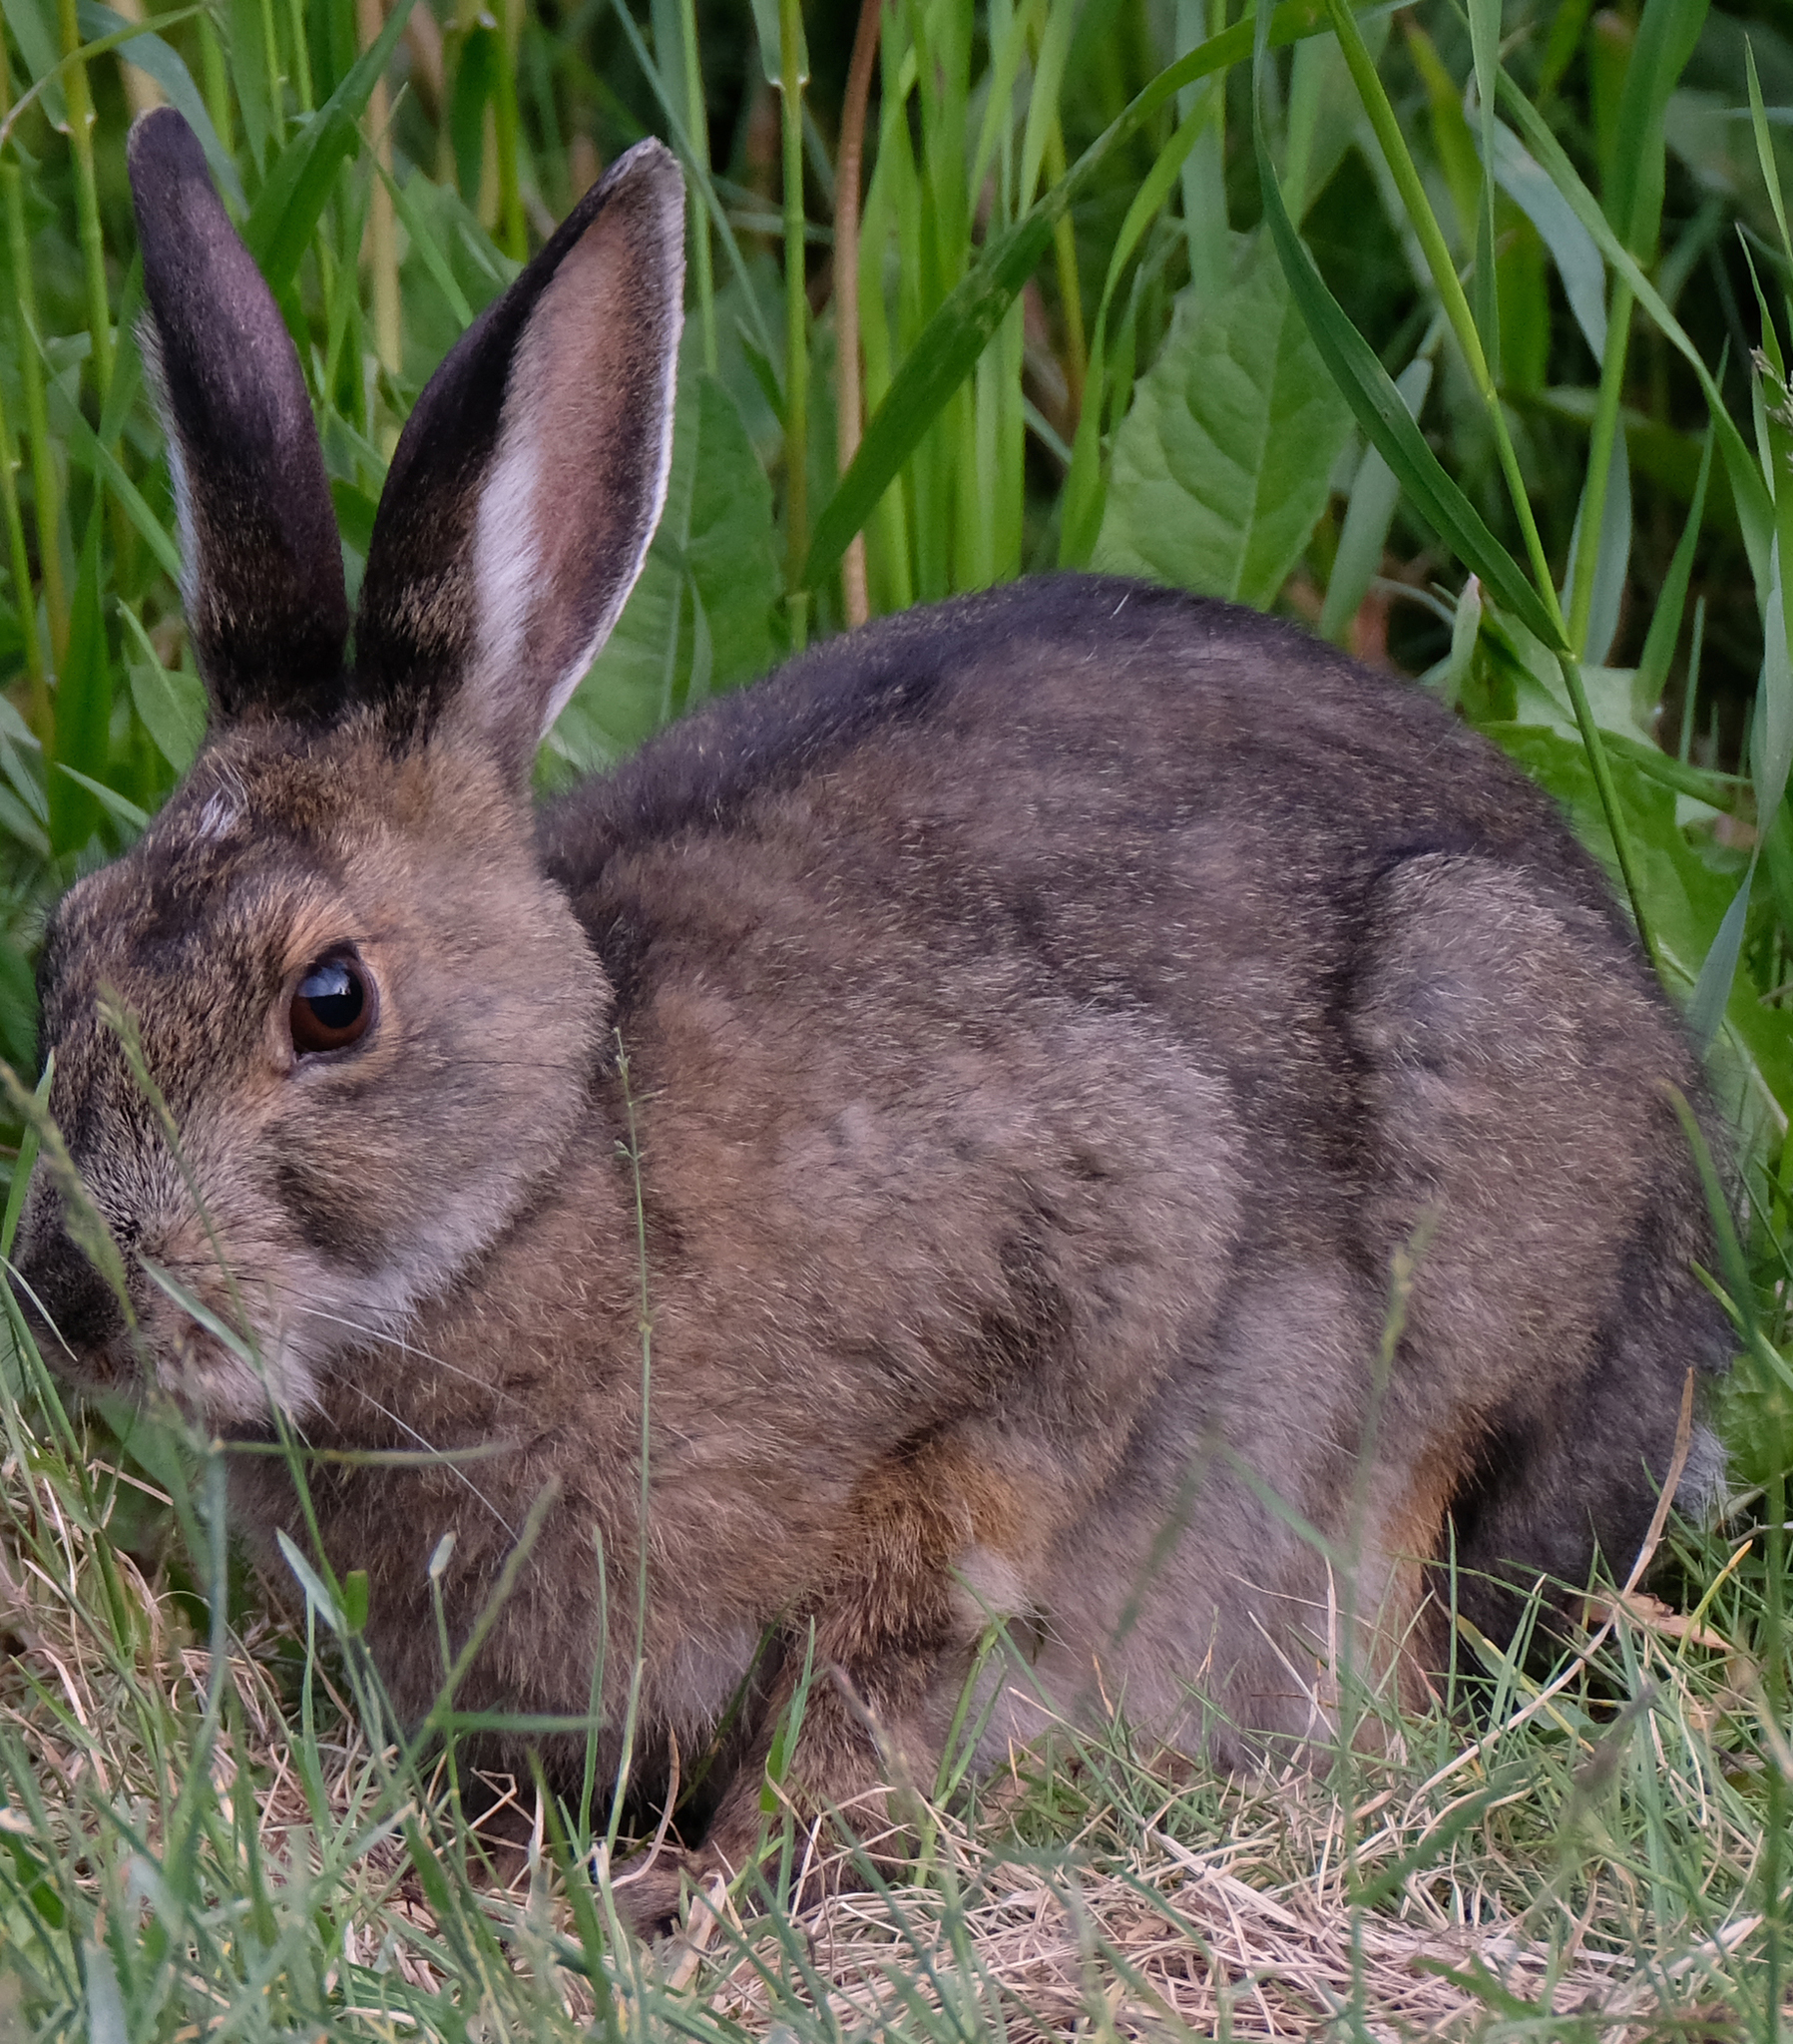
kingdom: Animalia
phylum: Chordata
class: Mammalia
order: Lagomorpha
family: Leporidae
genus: Lepus
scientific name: Lepus americanus
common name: Snowshoe hare
